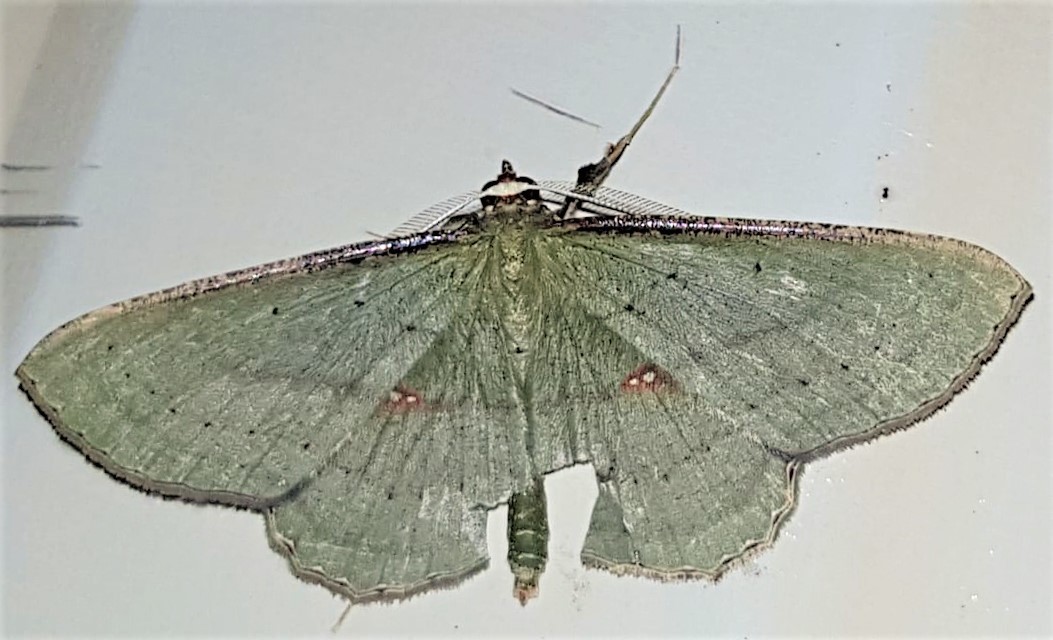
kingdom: Animalia
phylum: Arthropoda
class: Insecta
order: Lepidoptera
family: Geometridae
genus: Ametris
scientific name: Ametris nitocris
